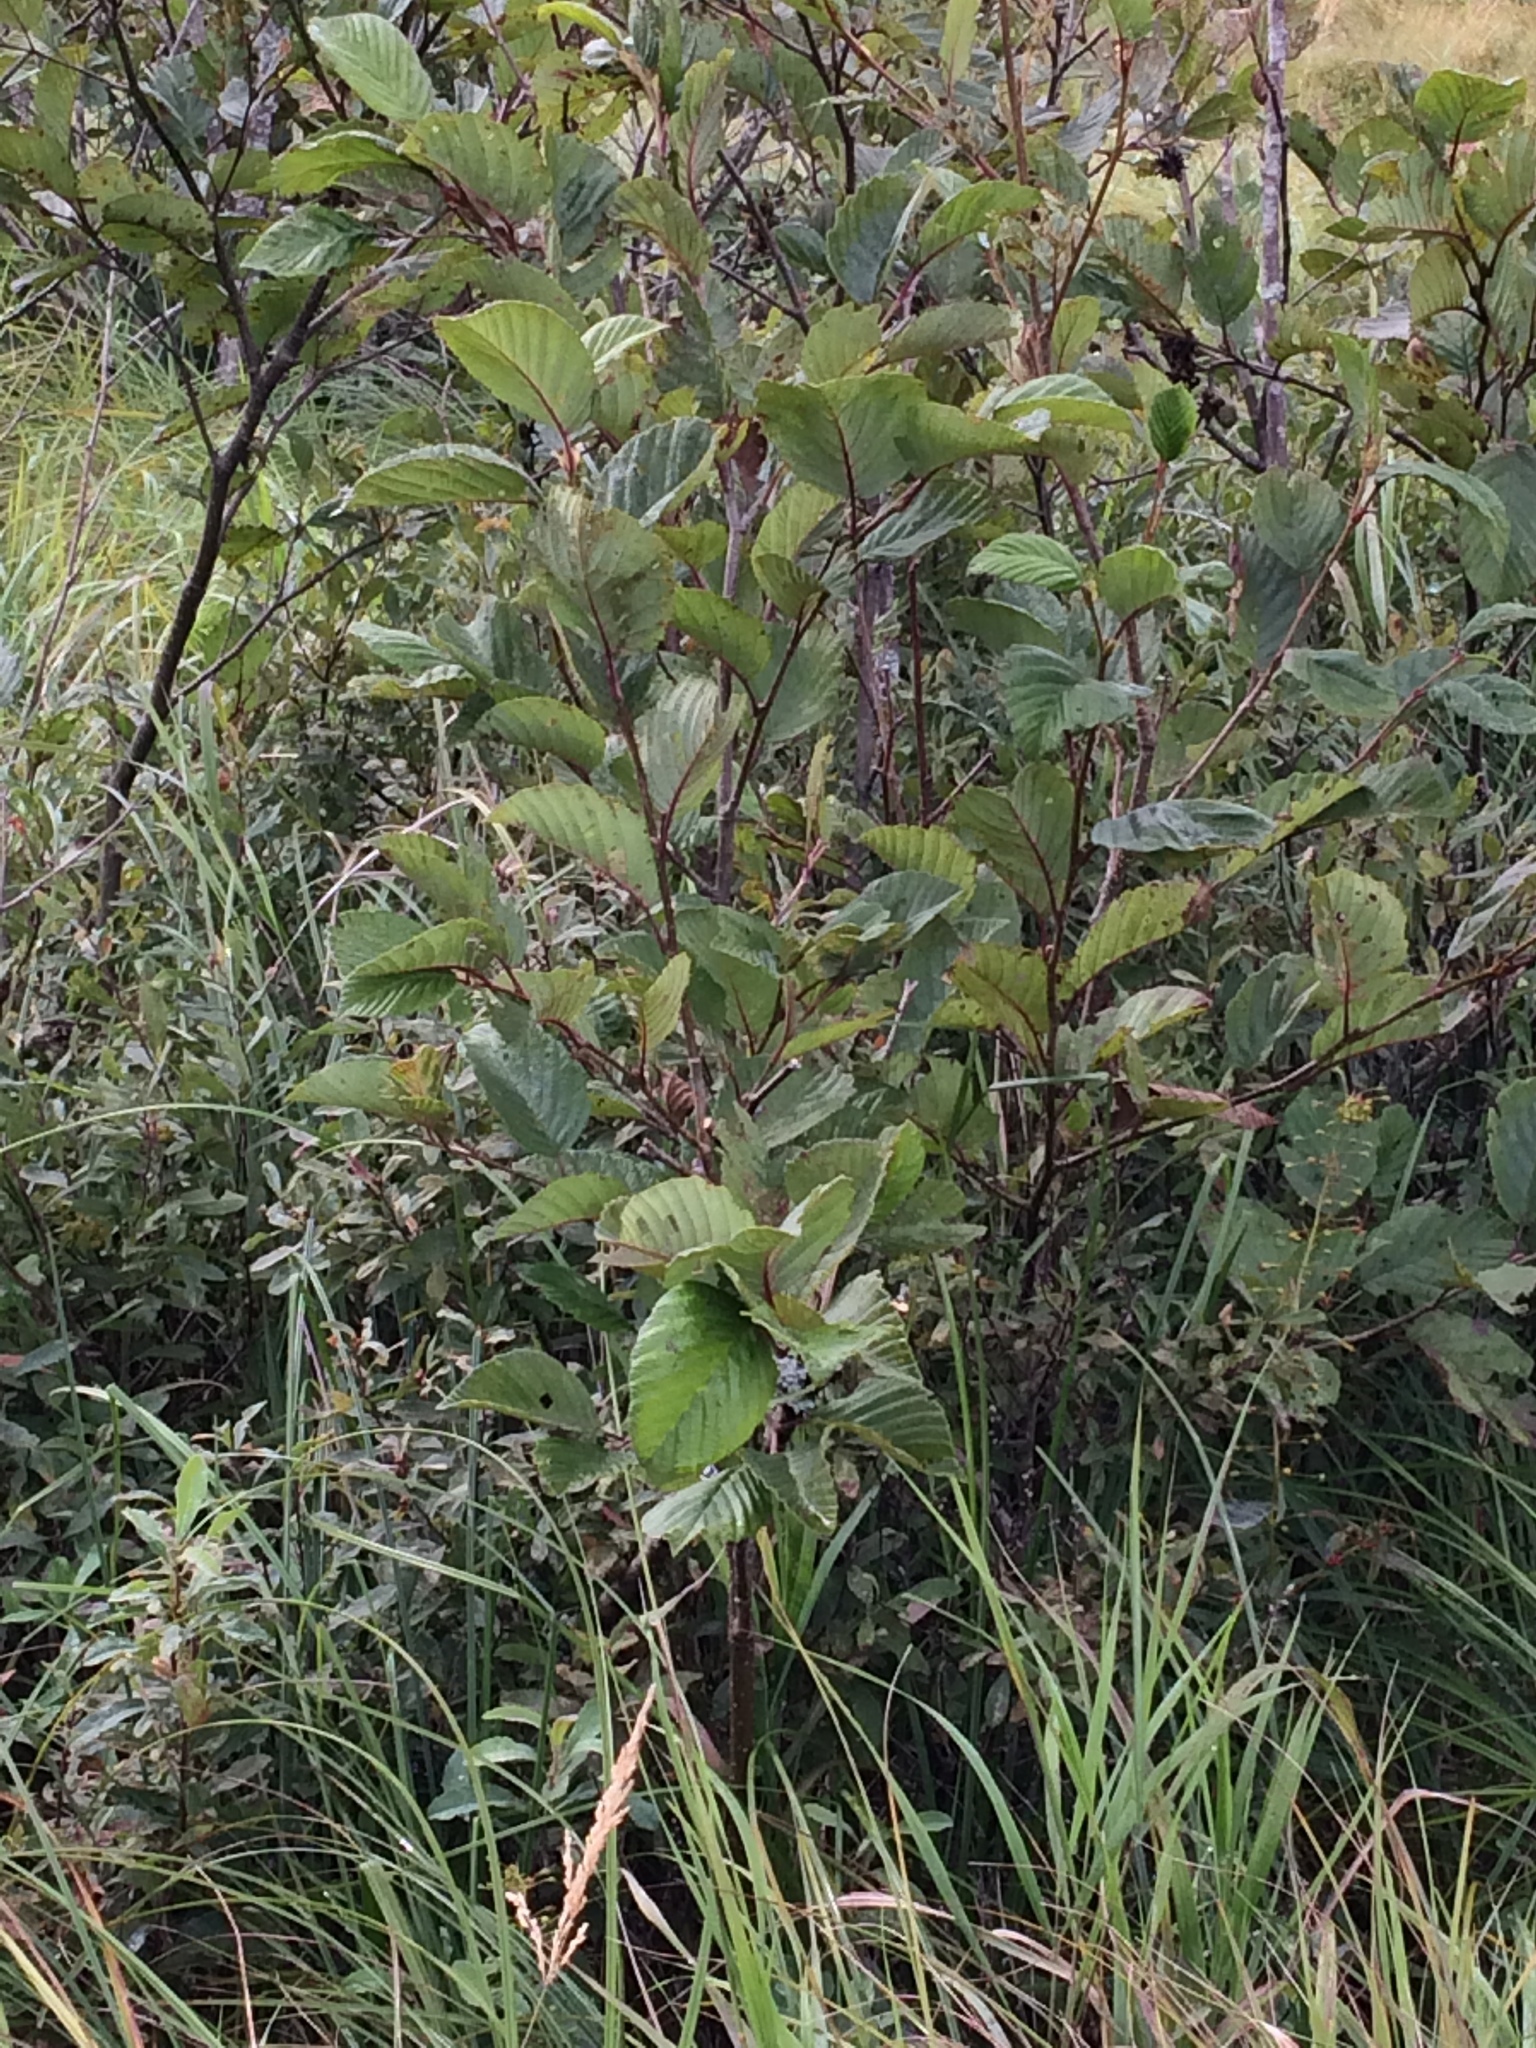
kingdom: Plantae
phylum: Tracheophyta
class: Magnoliopsida
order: Fagales
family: Betulaceae
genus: Alnus
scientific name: Alnus incana
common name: Grey alder
